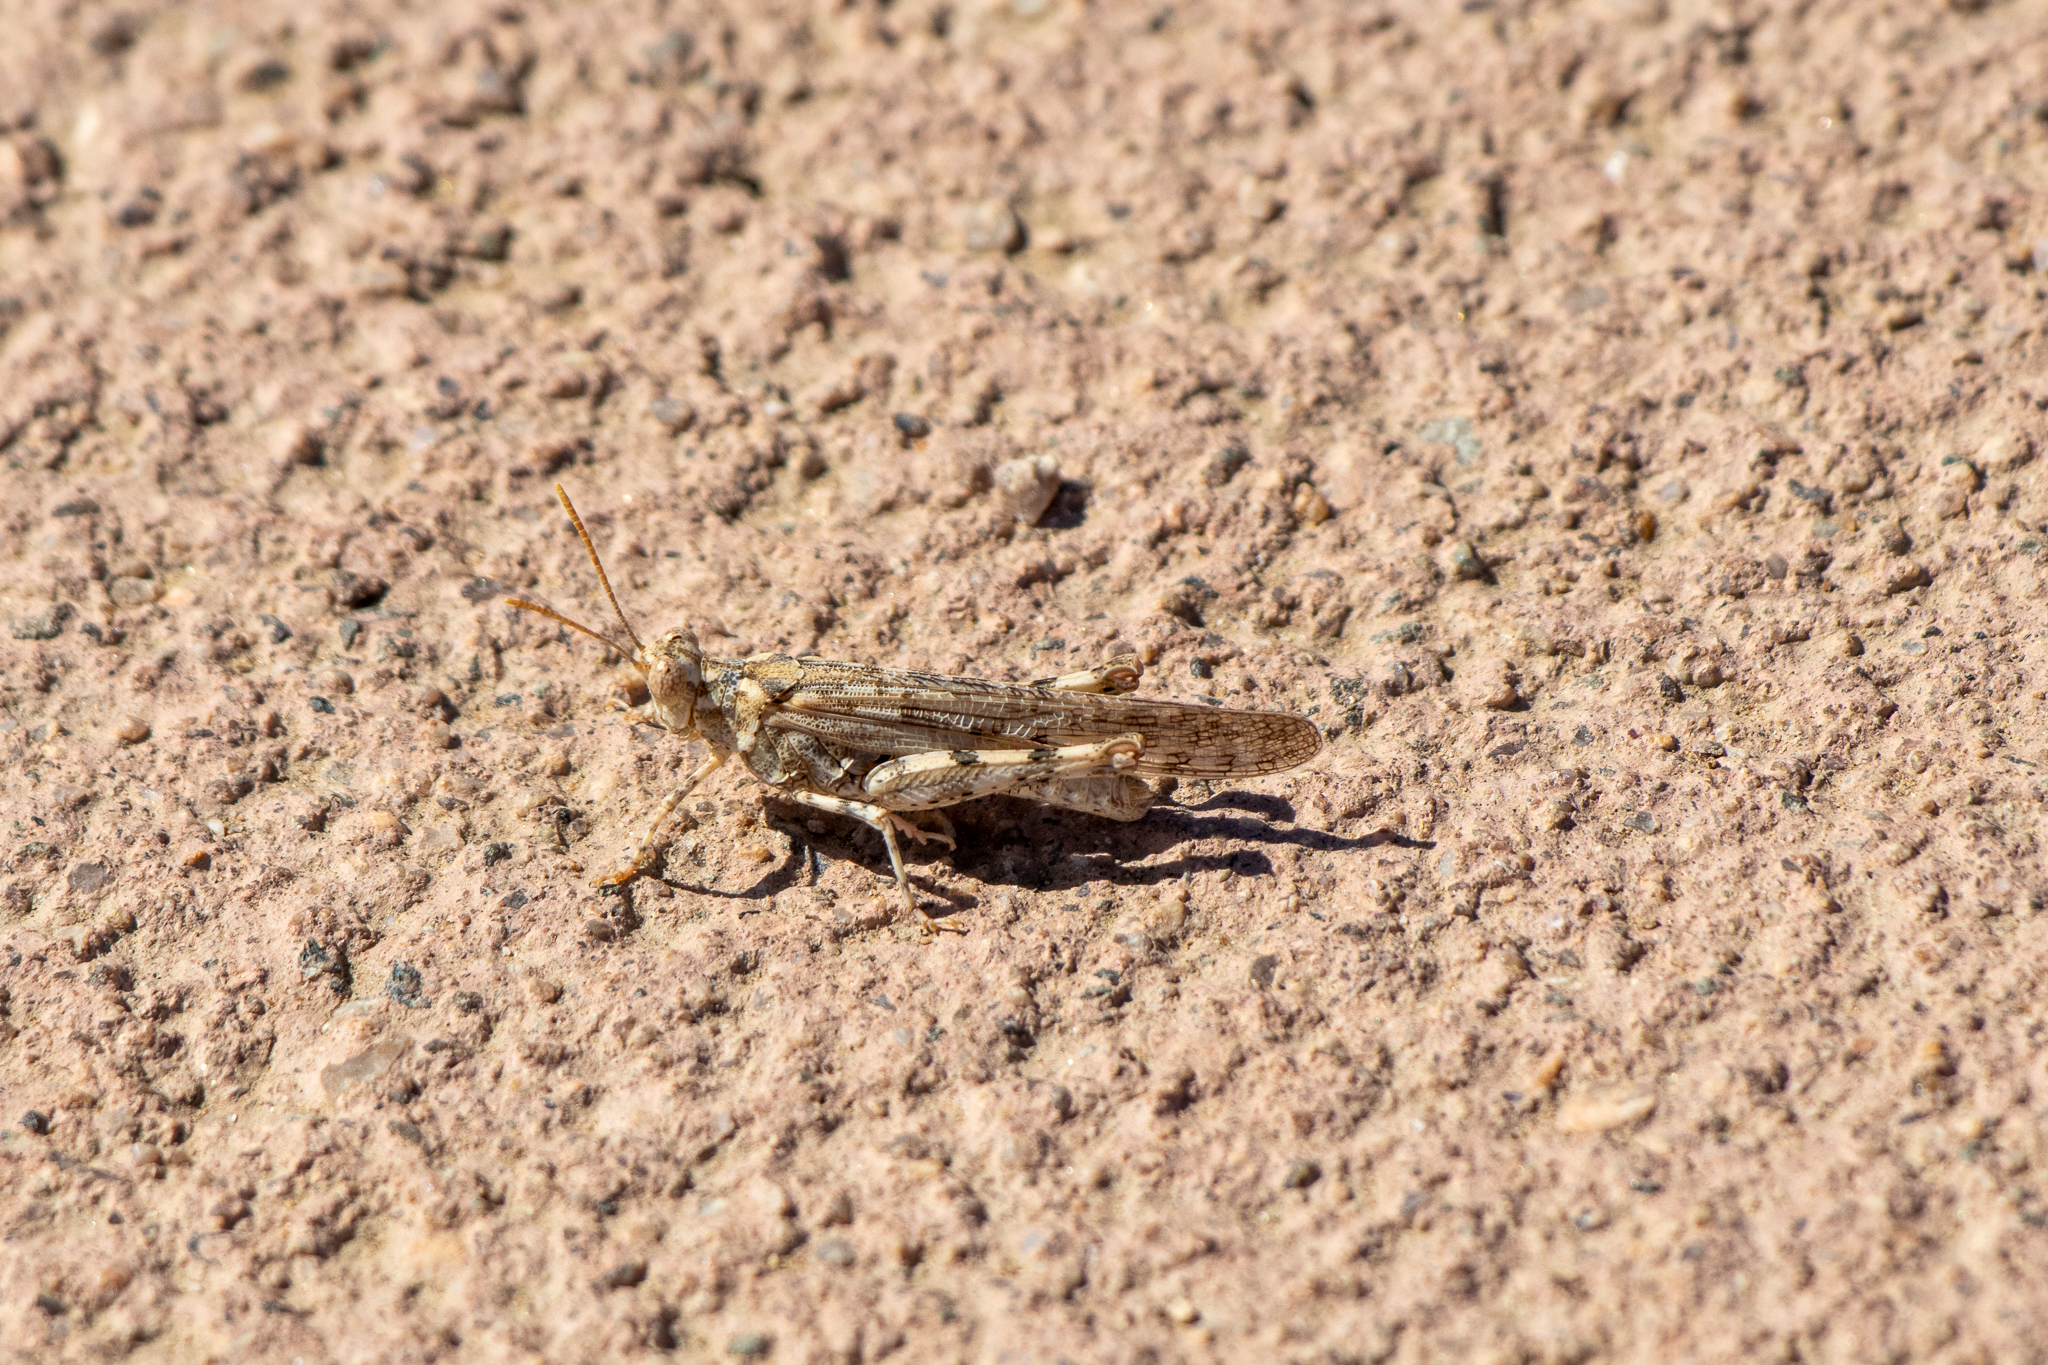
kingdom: Animalia
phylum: Arthropoda
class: Insecta
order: Orthoptera
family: Acrididae
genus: Anconia
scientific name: Anconia integra
